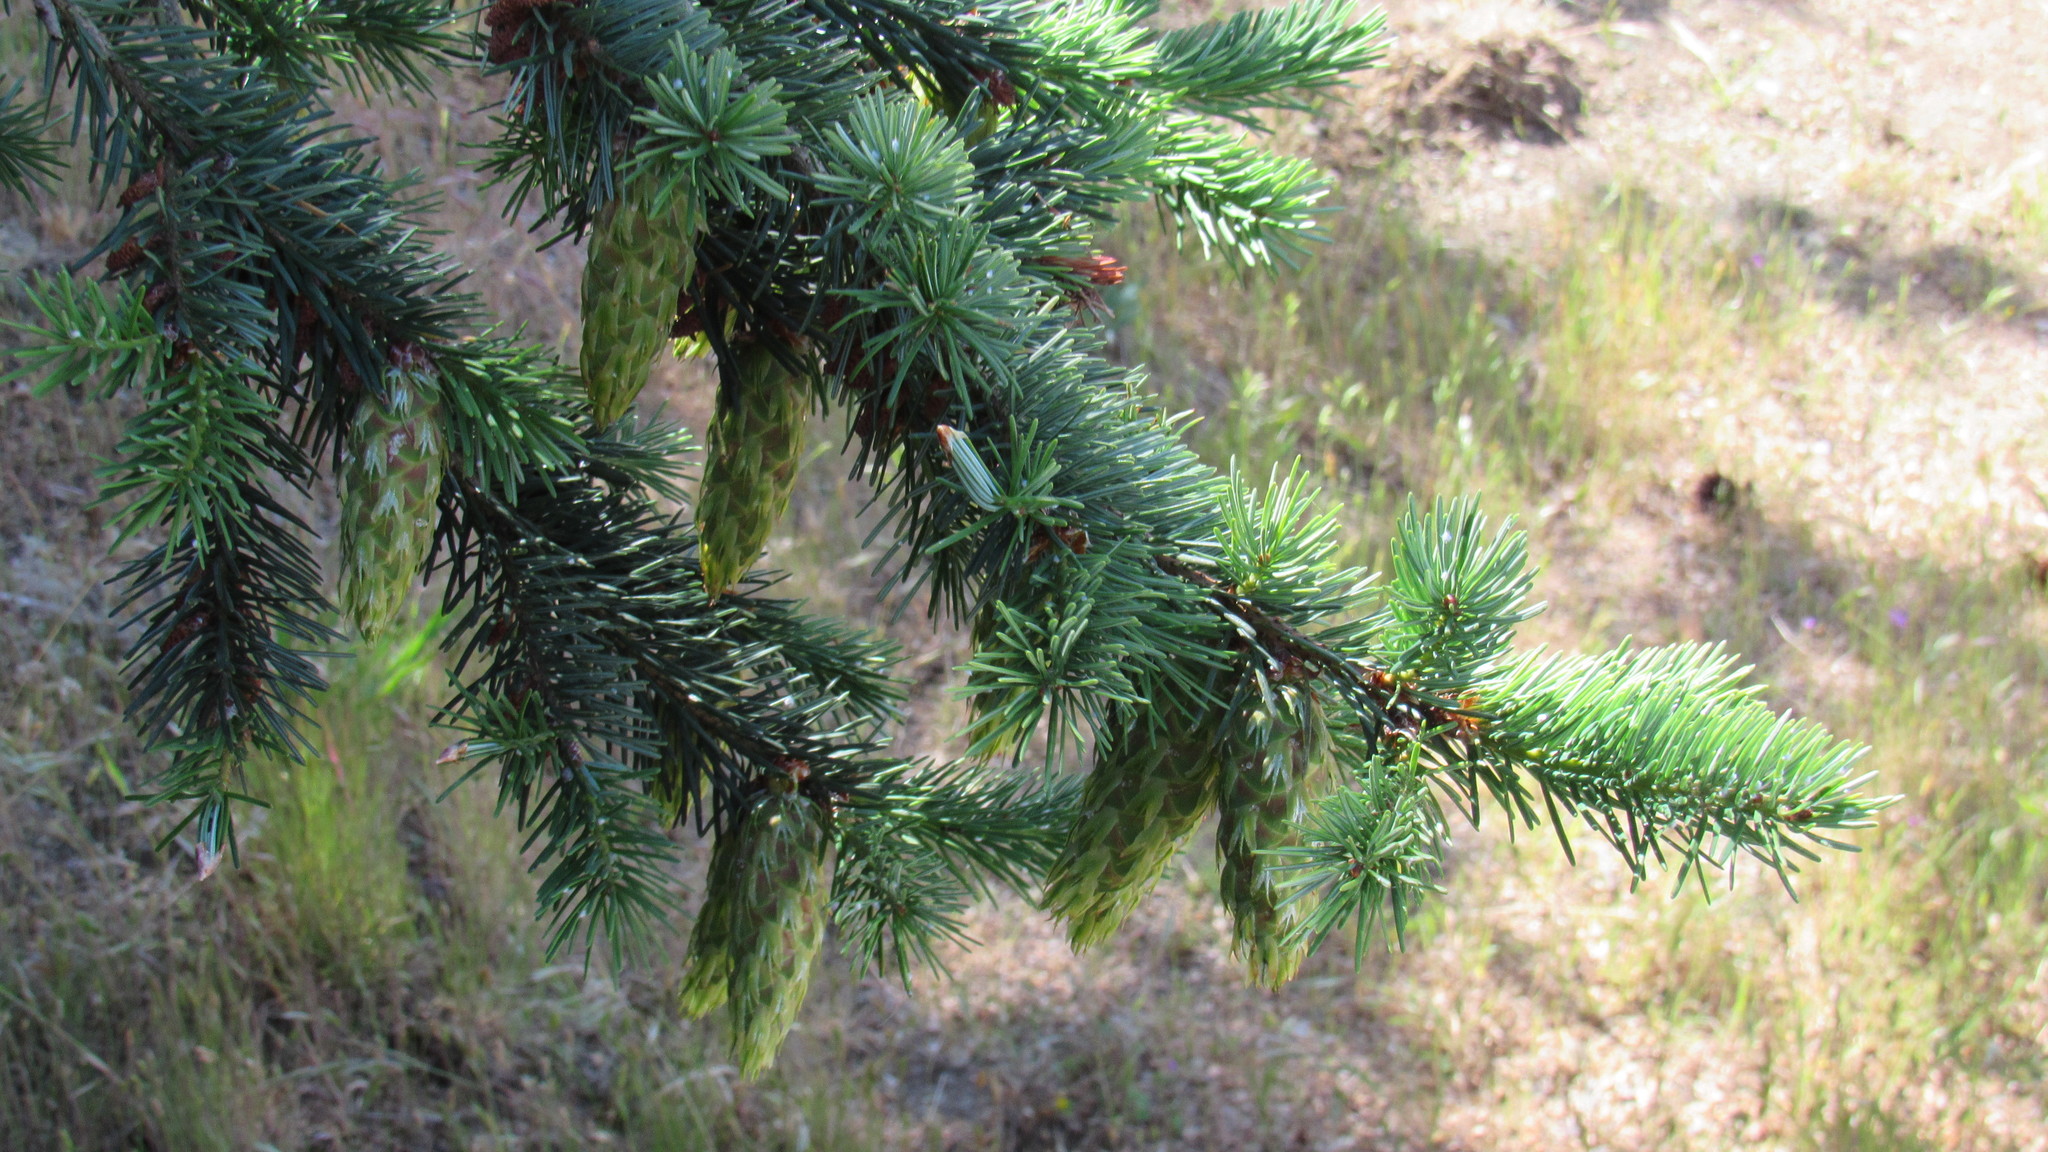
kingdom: Plantae
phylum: Tracheophyta
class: Pinopsida
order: Pinales
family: Pinaceae
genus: Pseudotsuga
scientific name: Pseudotsuga menziesii
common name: Douglas fir
